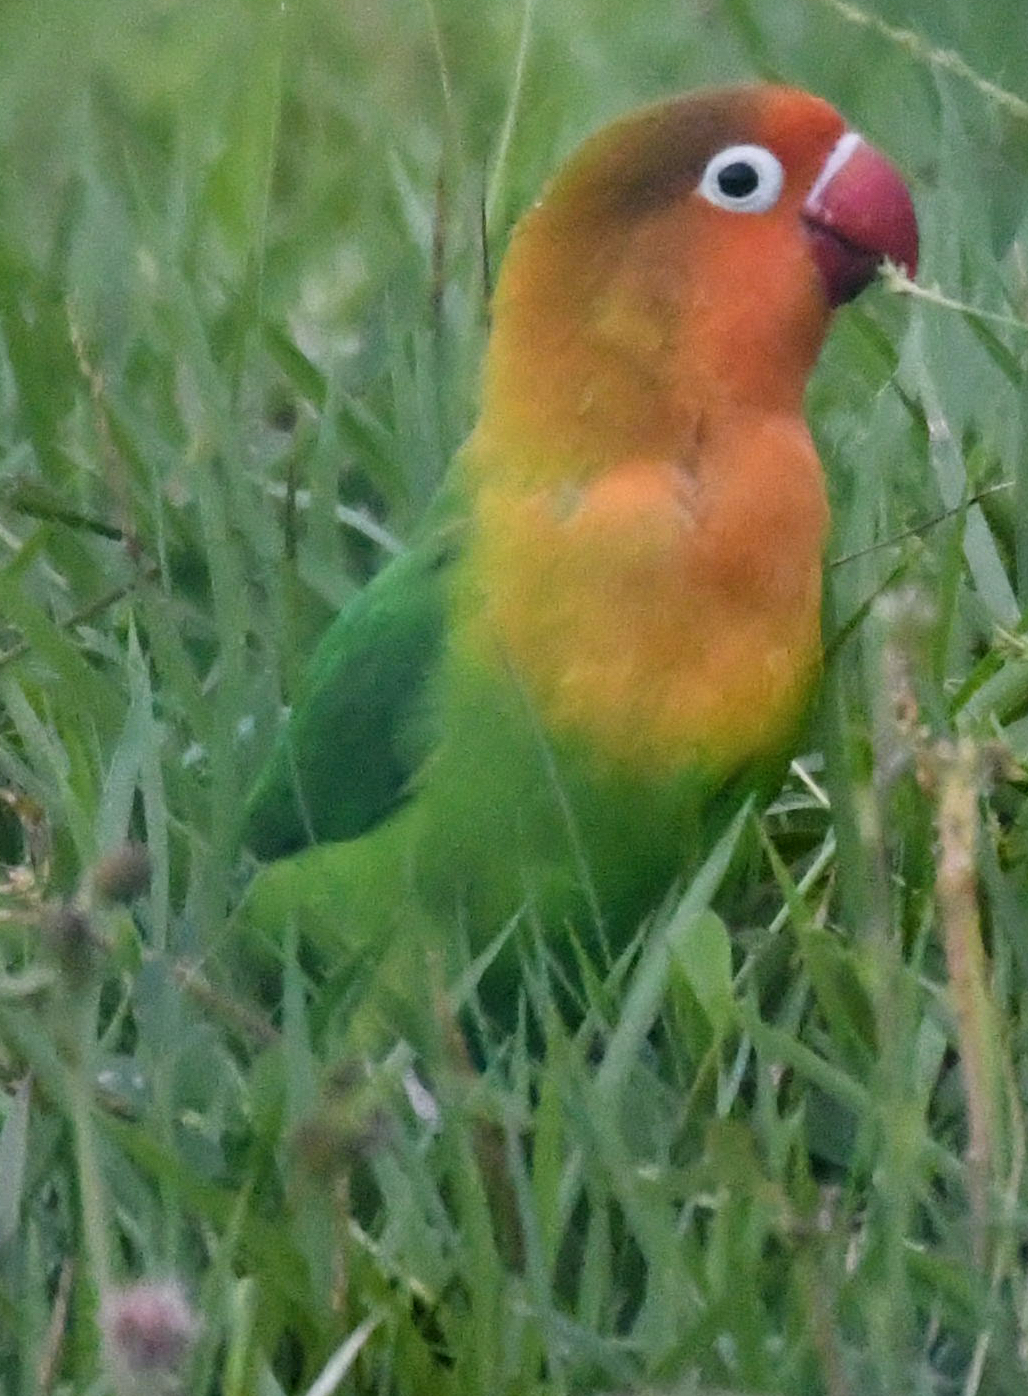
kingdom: Animalia
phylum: Chordata
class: Aves
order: Psittaciformes
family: Psittacidae
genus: Agapornis
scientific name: Agapornis fischeri
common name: Fischer's lovebird
